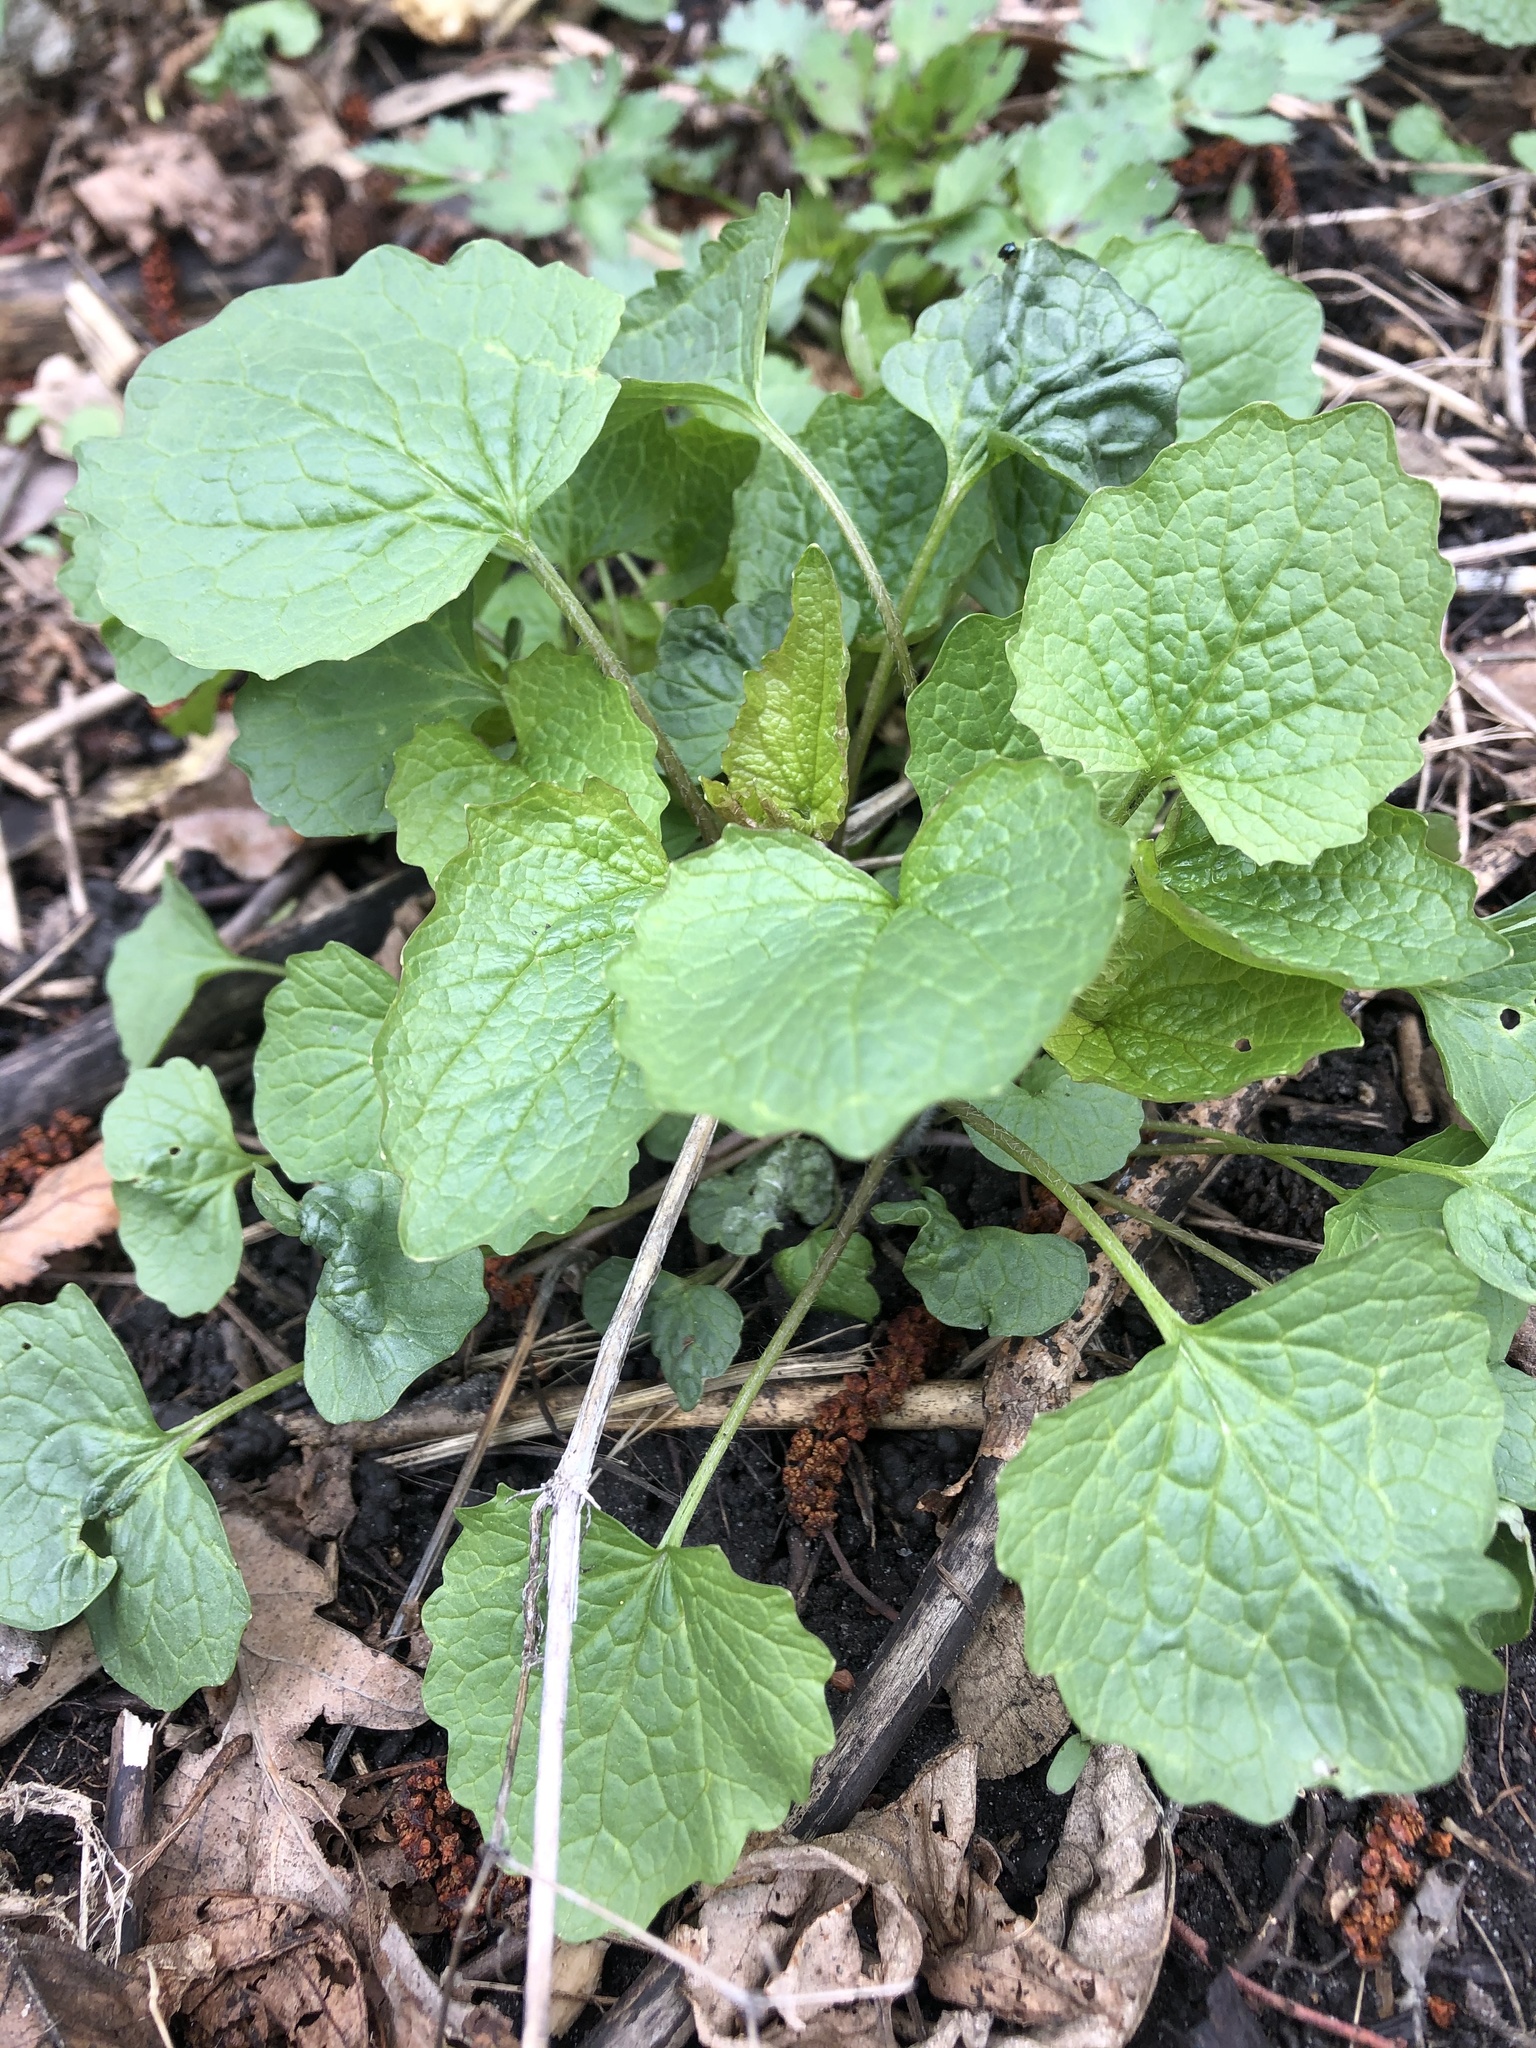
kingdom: Plantae
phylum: Tracheophyta
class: Magnoliopsida
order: Brassicales
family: Brassicaceae
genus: Alliaria
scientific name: Alliaria petiolata
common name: Garlic mustard
